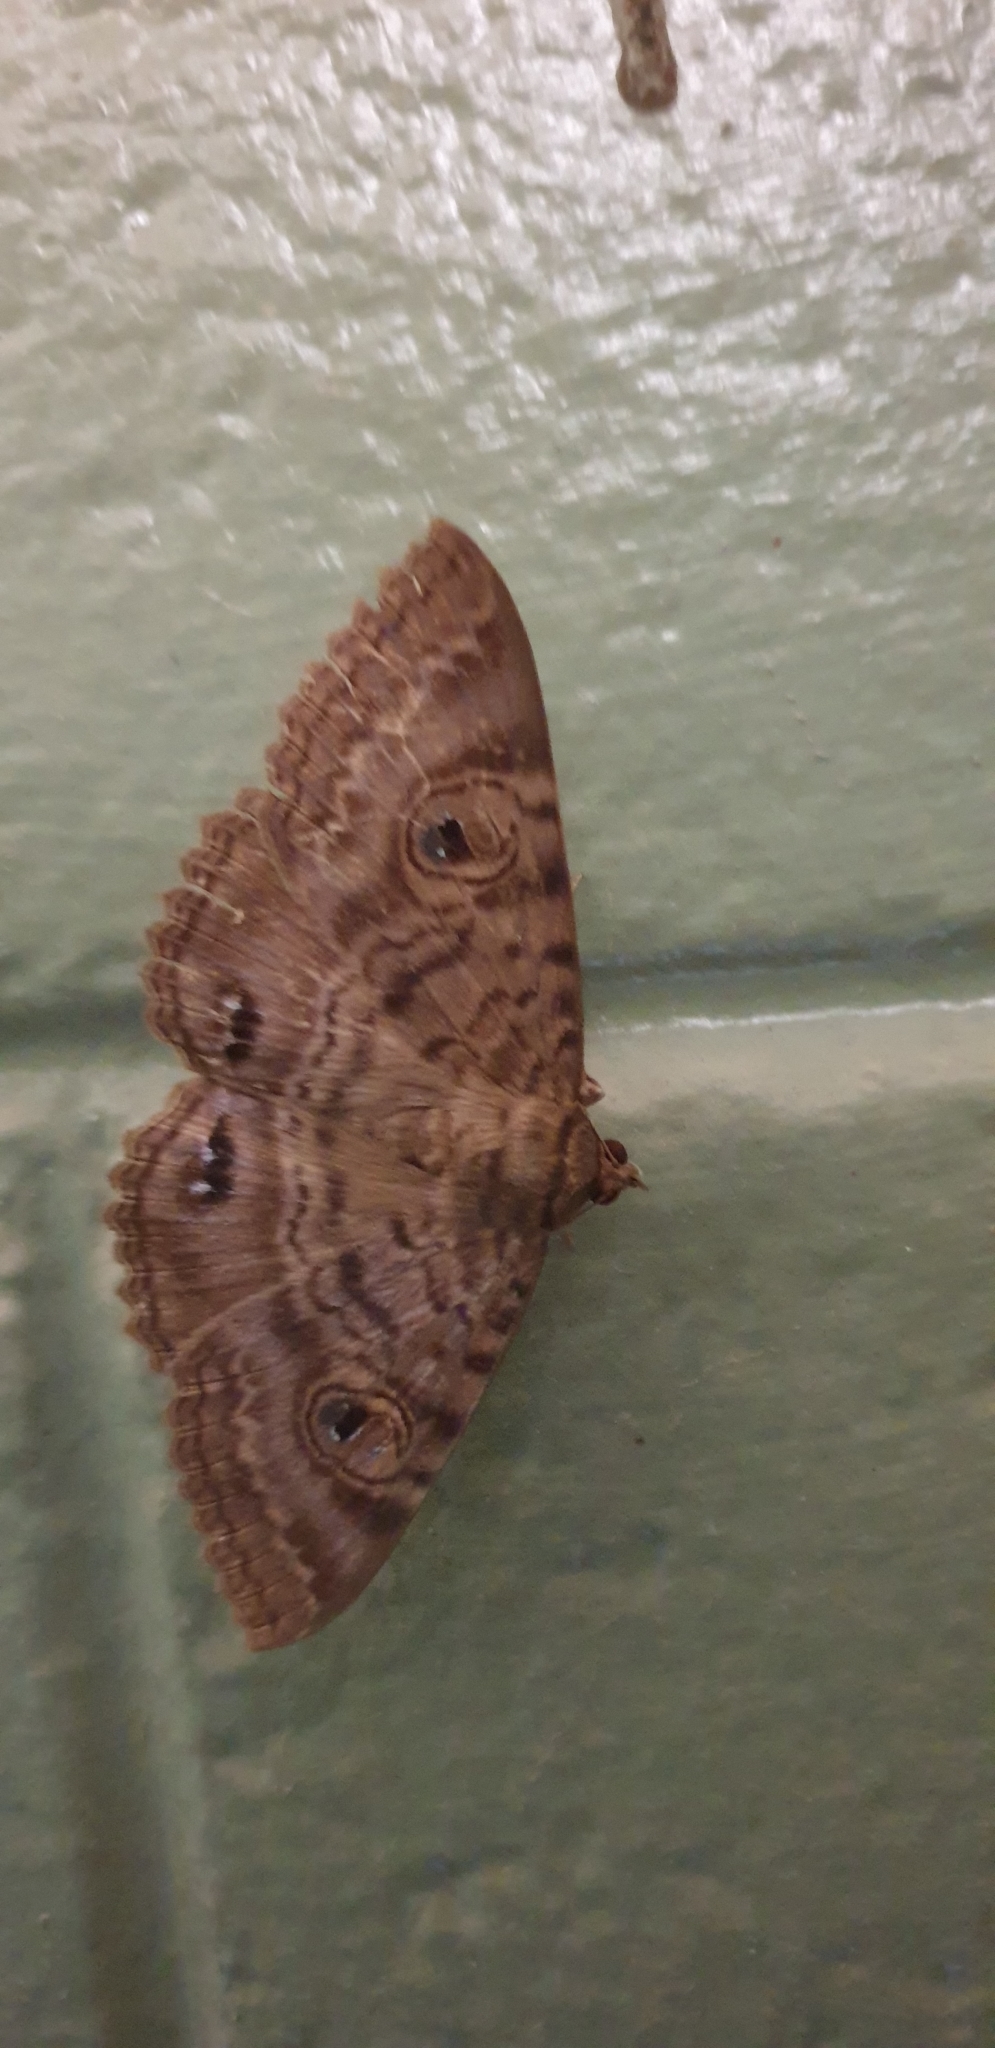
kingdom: Animalia
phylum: Arthropoda
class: Insecta
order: Lepidoptera
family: Erebidae
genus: Speiredonia
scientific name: Speiredonia spectans
